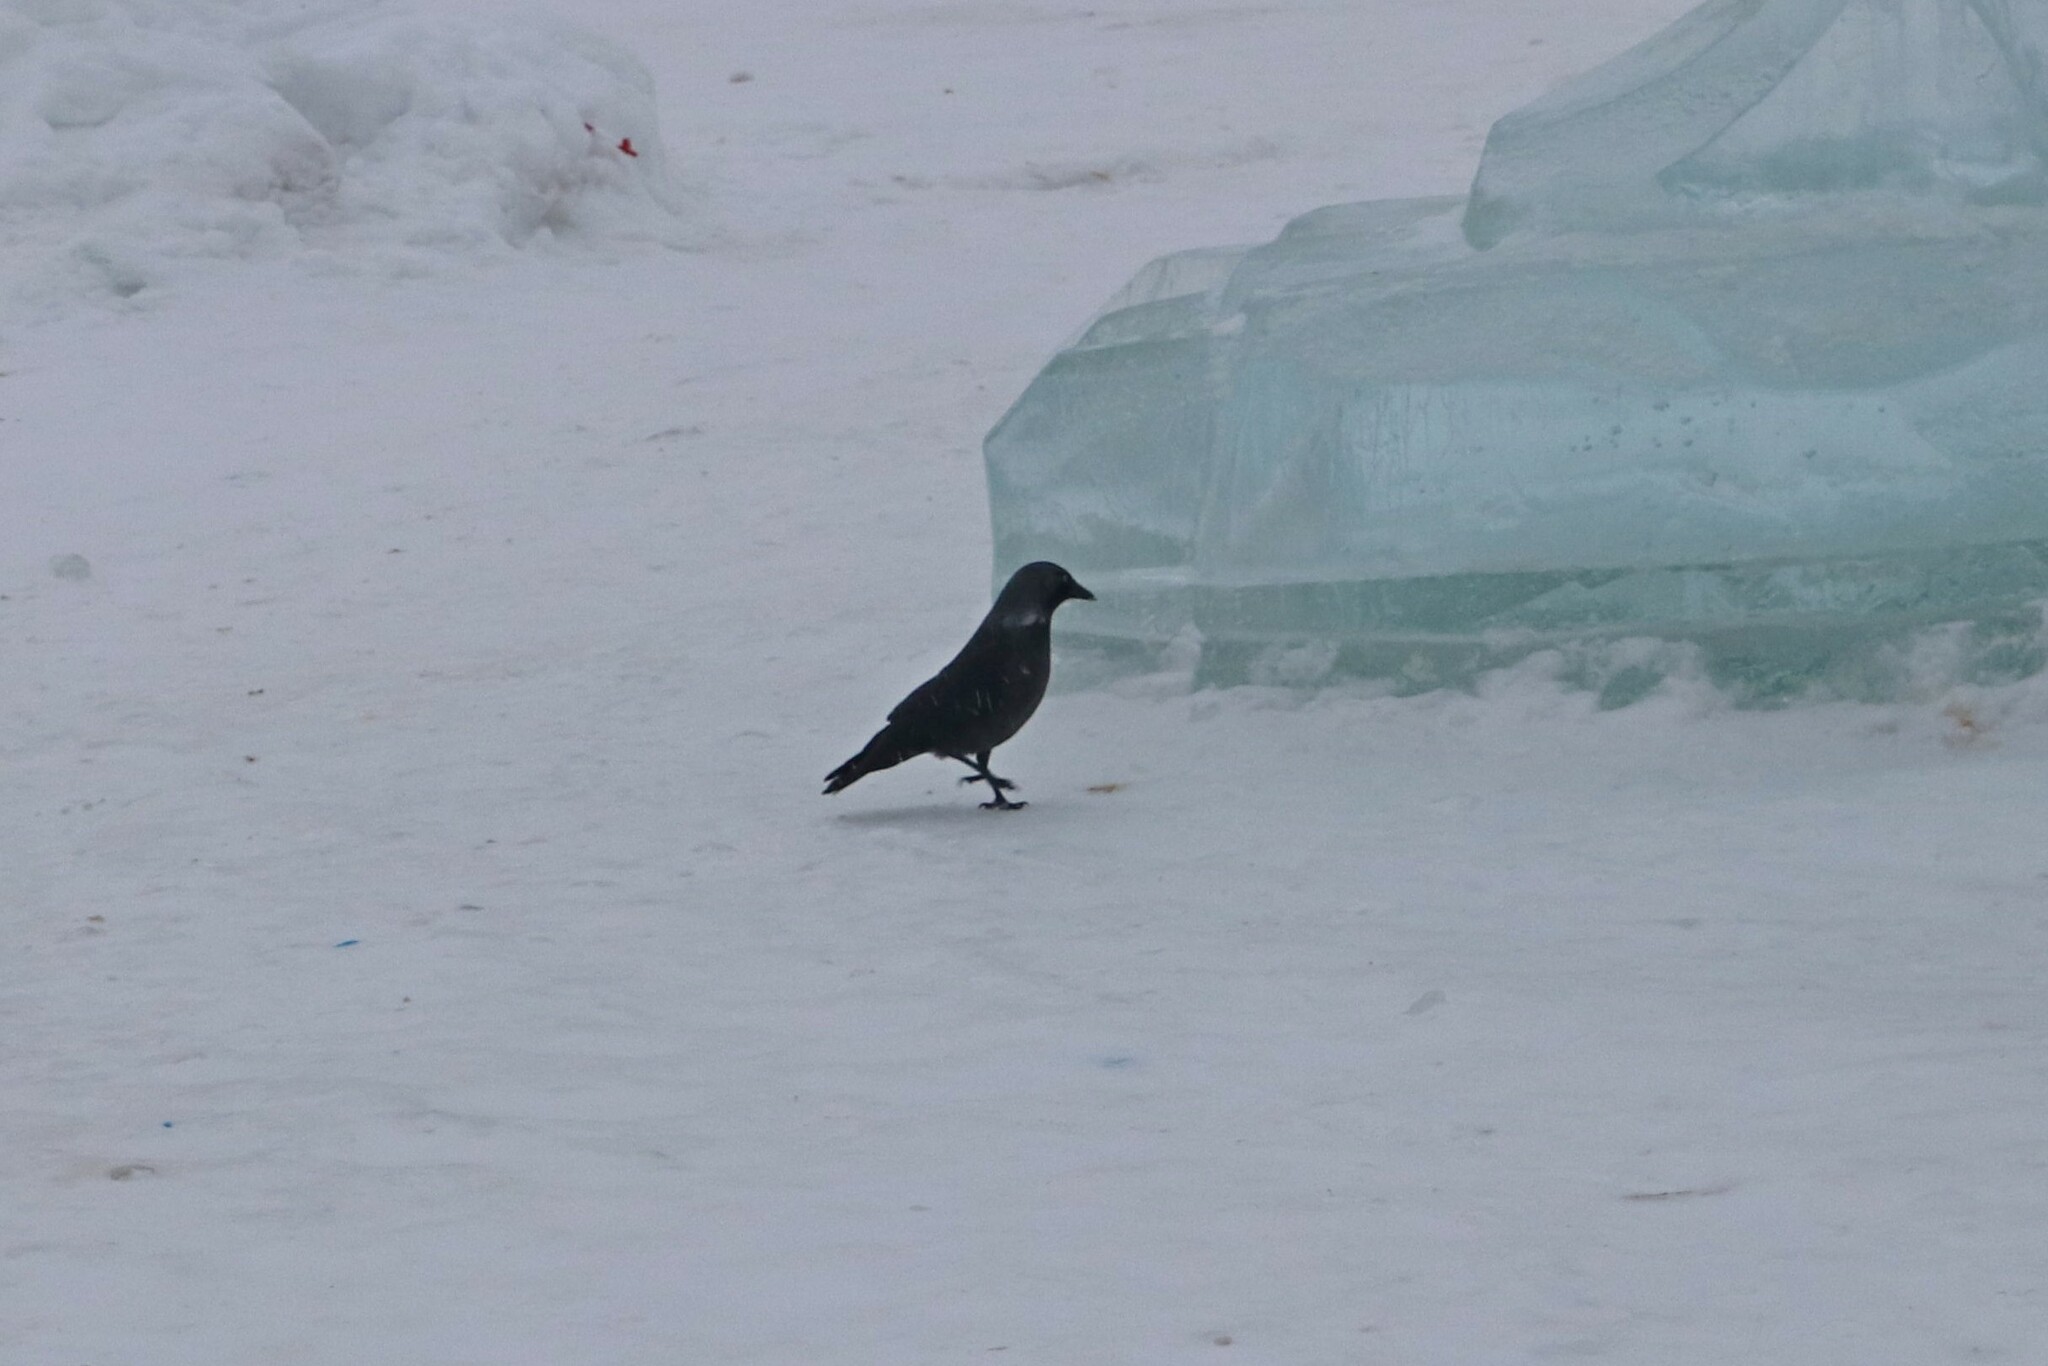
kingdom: Animalia
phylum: Chordata
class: Aves
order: Passeriformes
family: Corvidae
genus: Coloeus
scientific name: Coloeus monedula
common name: Western jackdaw
